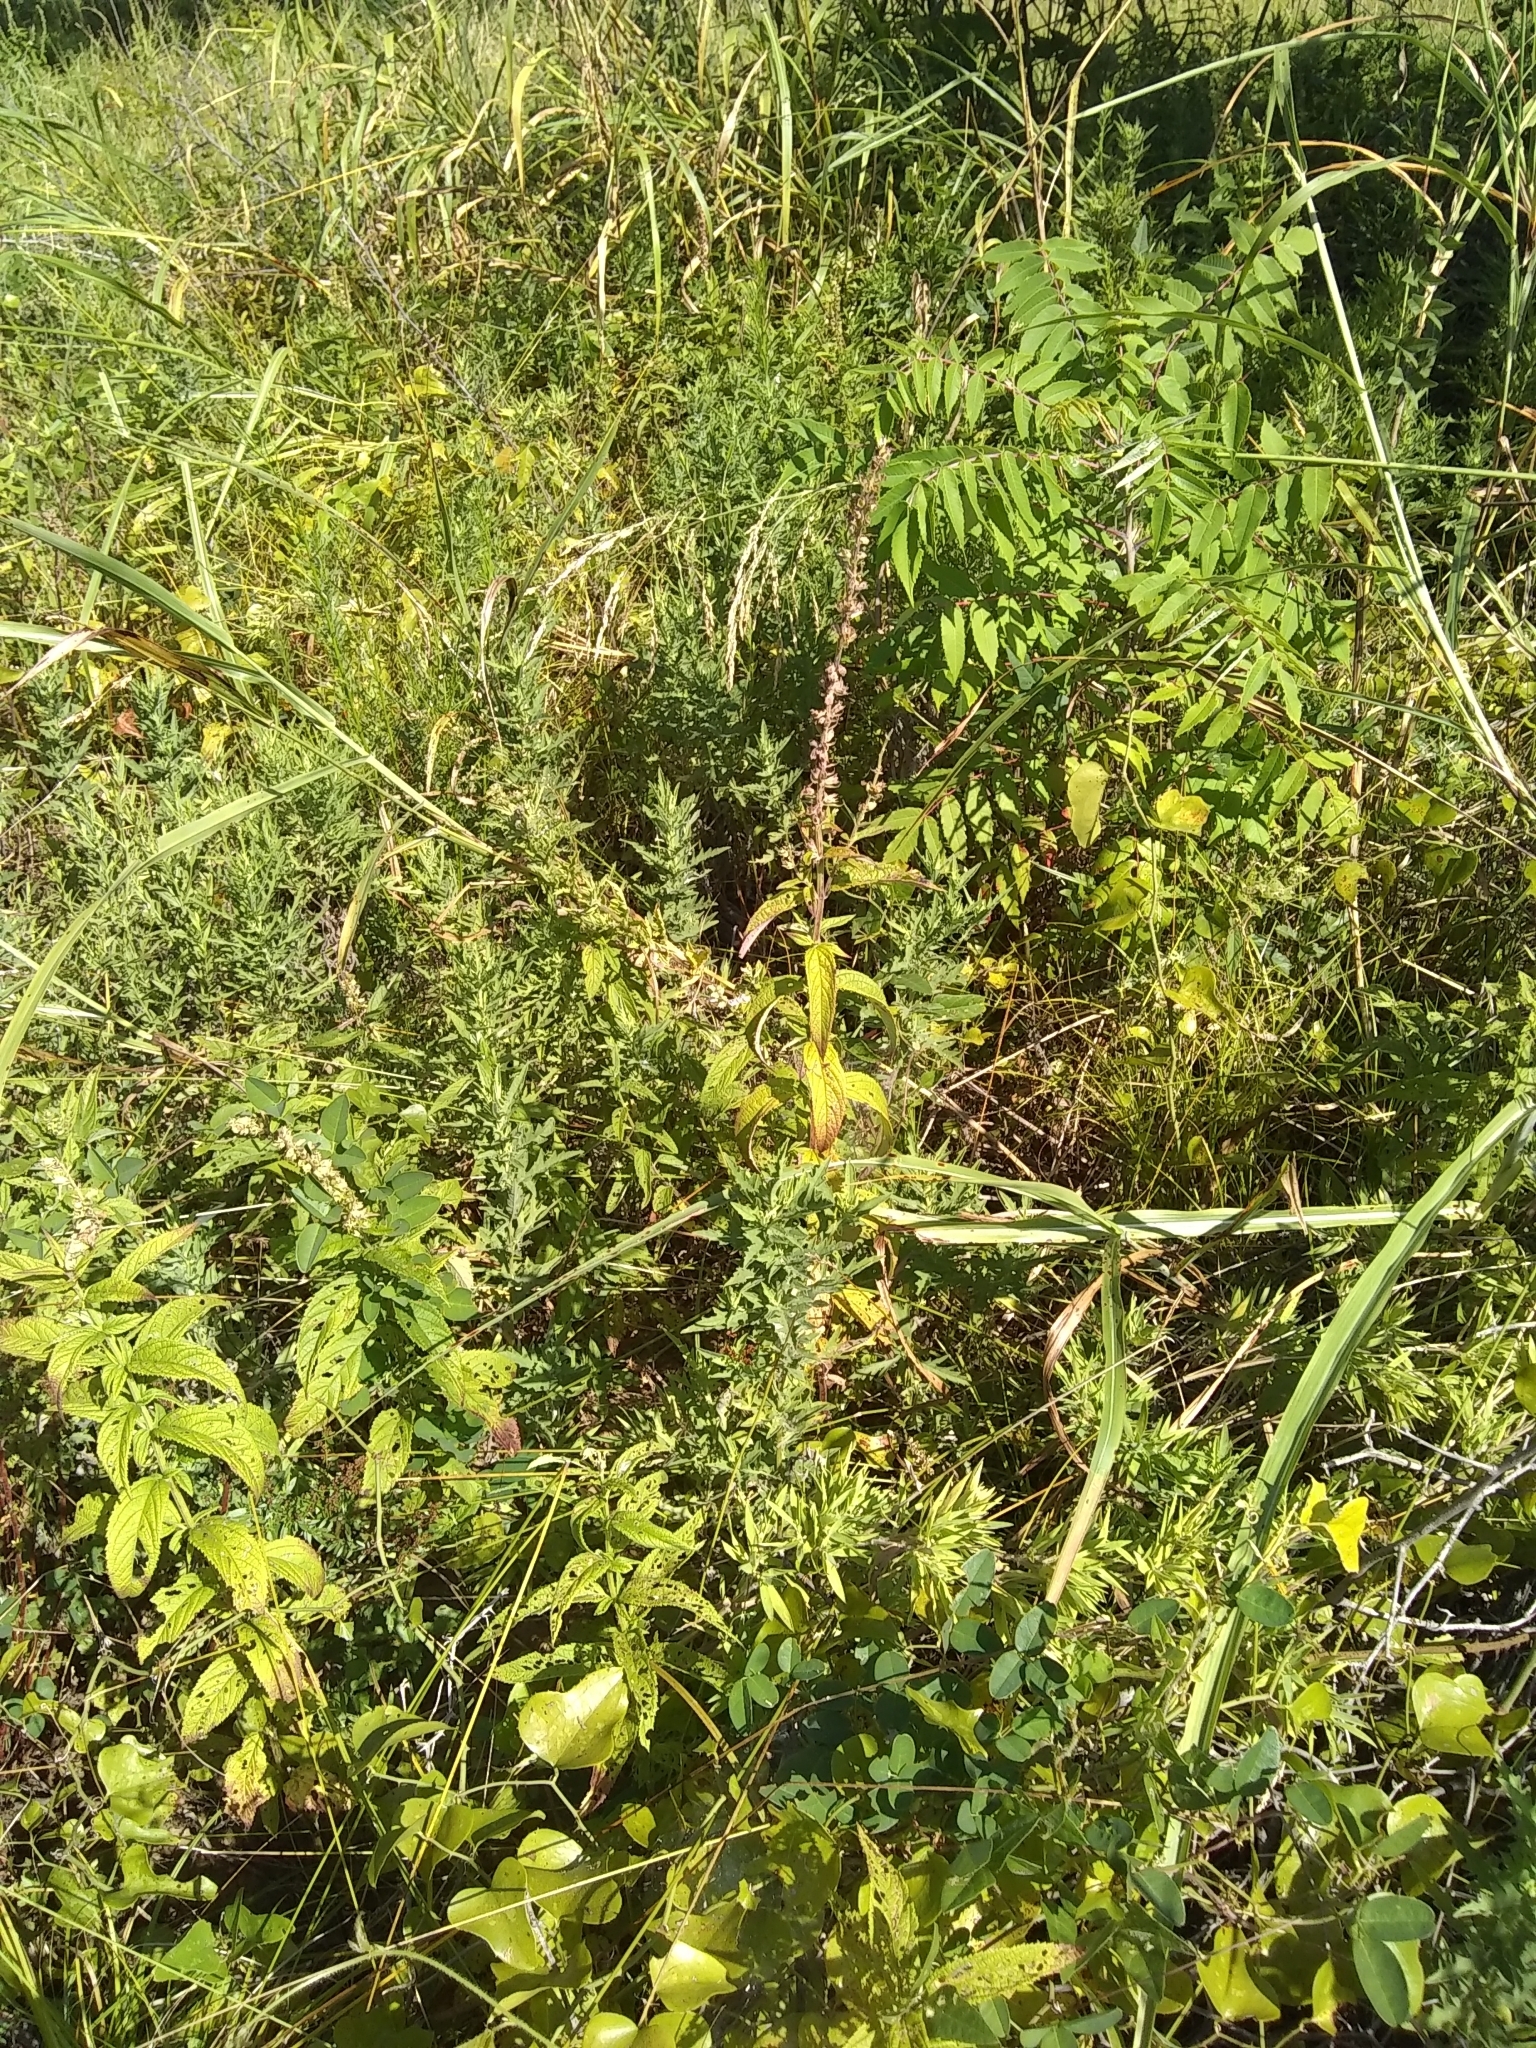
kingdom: Plantae
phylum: Tracheophyta
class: Magnoliopsida
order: Lamiales
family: Lamiaceae
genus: Teucrium
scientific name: Teucrium canadense
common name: American germander
